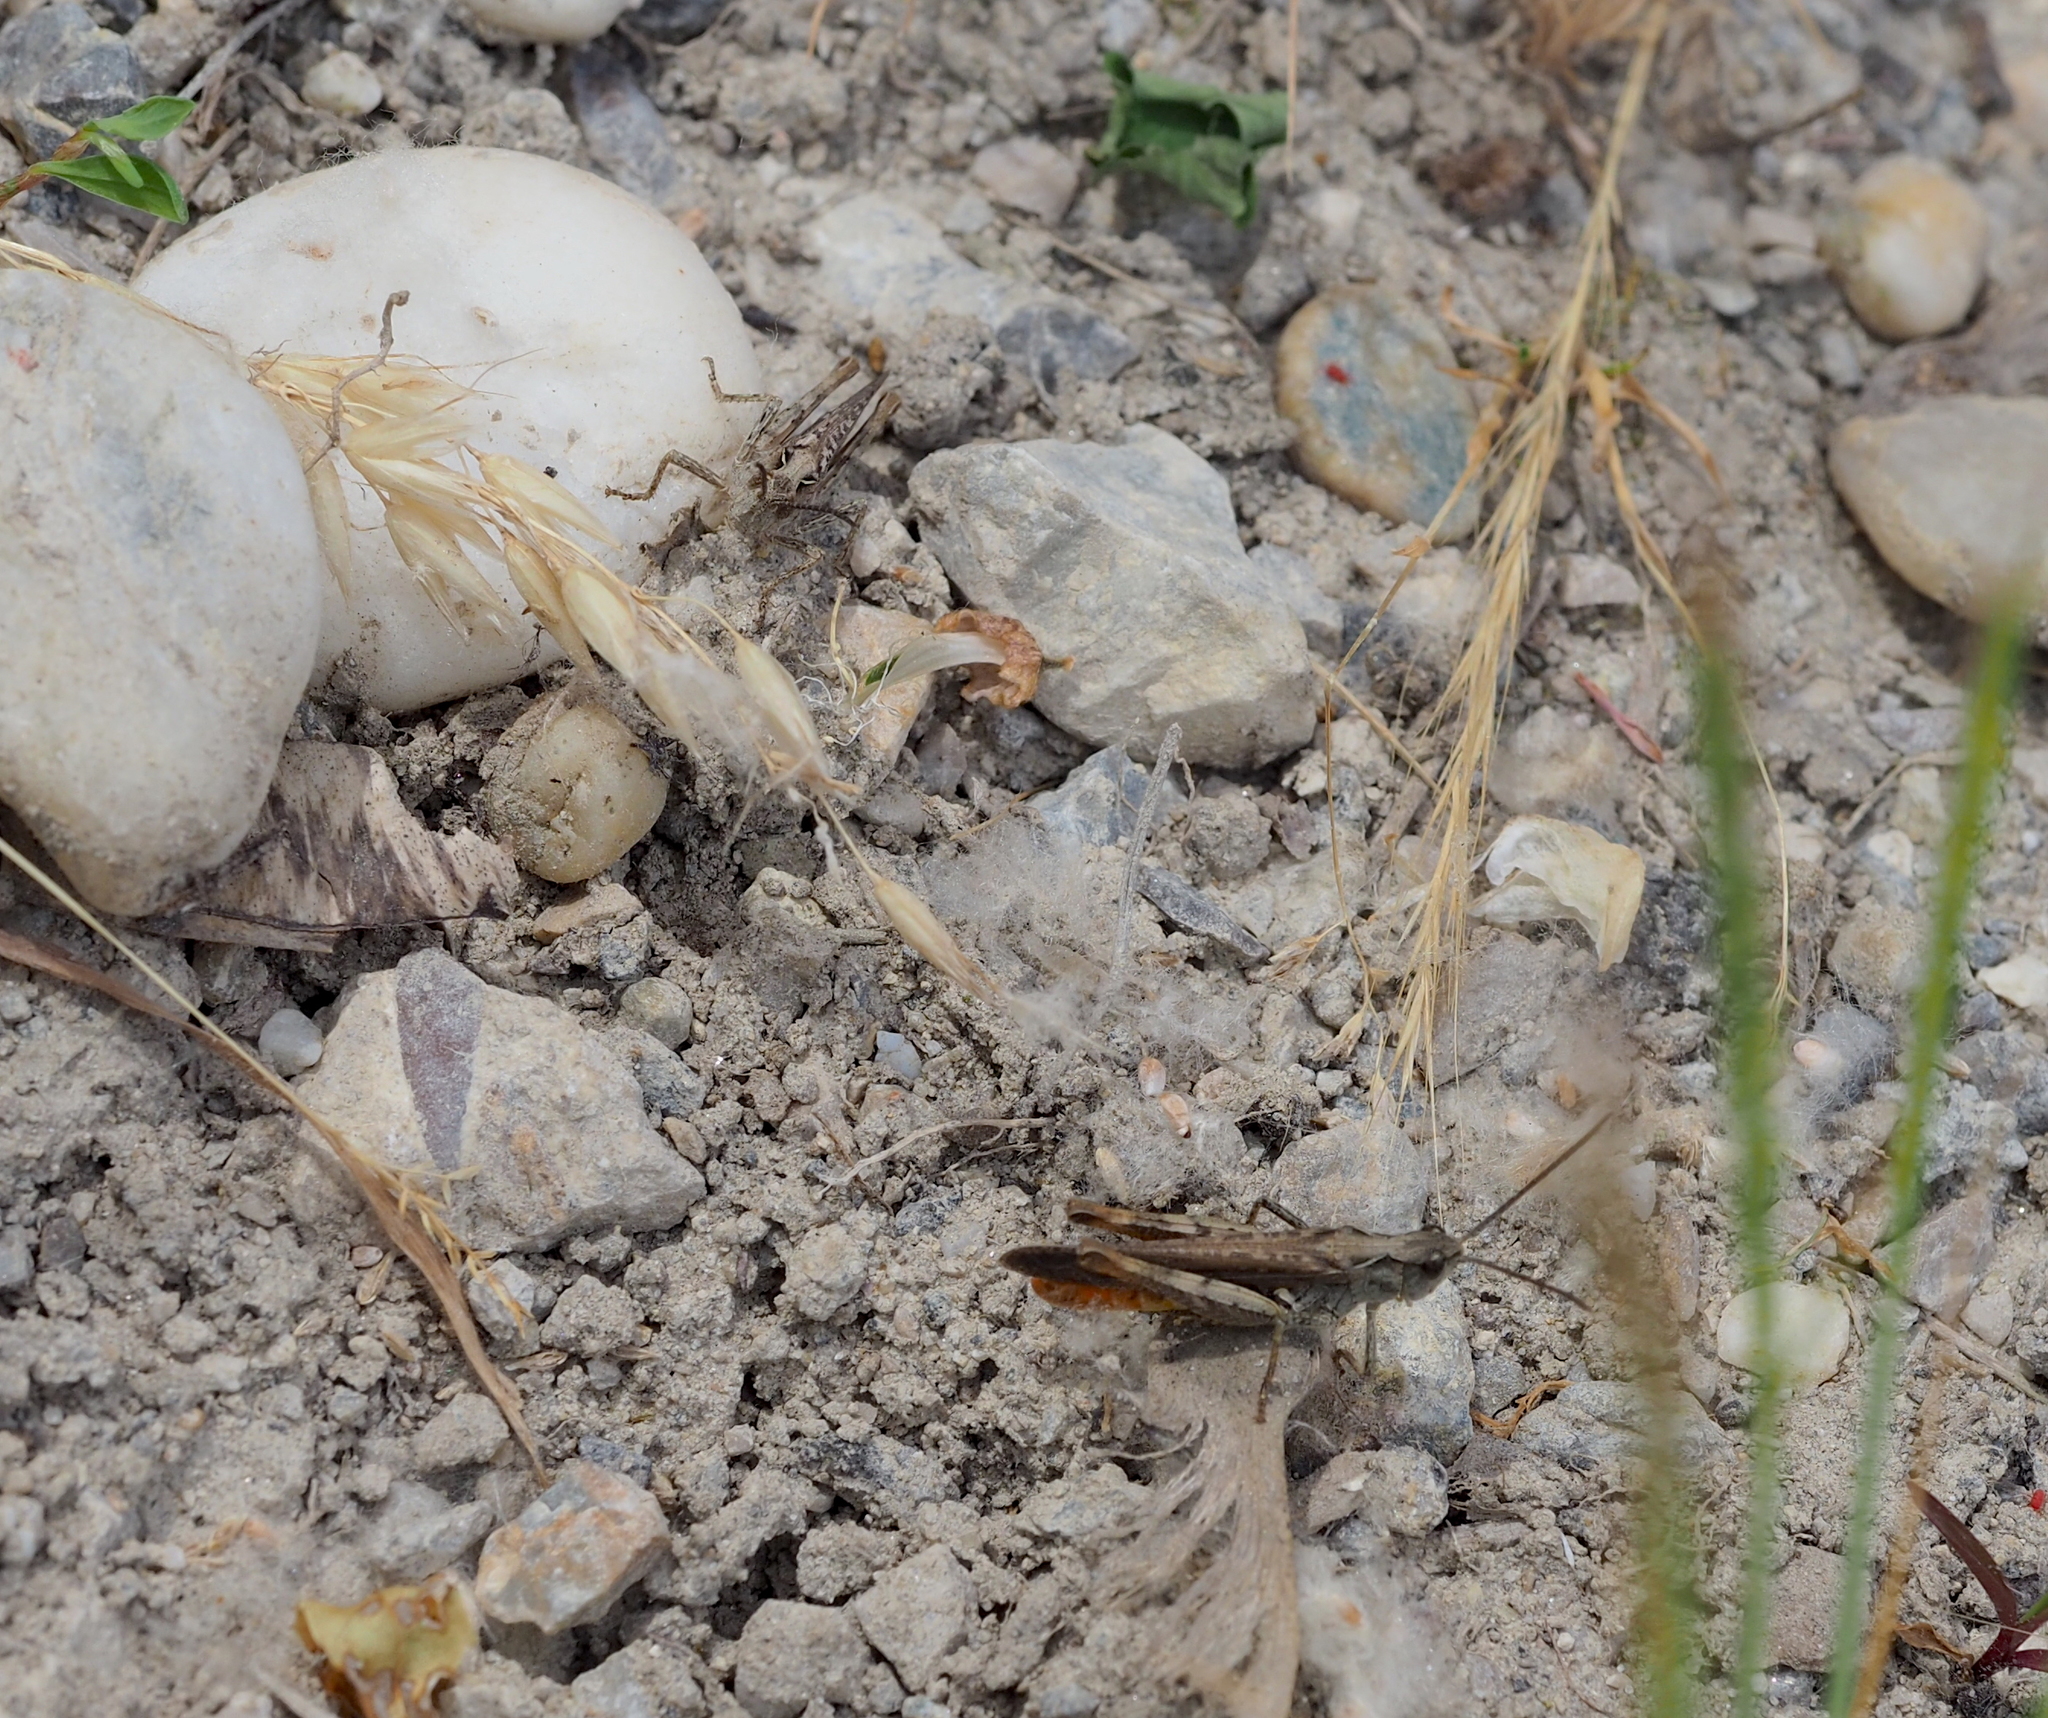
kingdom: Animalia
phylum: Arthropoda
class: Insecta
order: Orthoptera
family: Acrididae
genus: Chorthippus
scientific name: Chorthippus brunneus
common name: Field grasshopper
